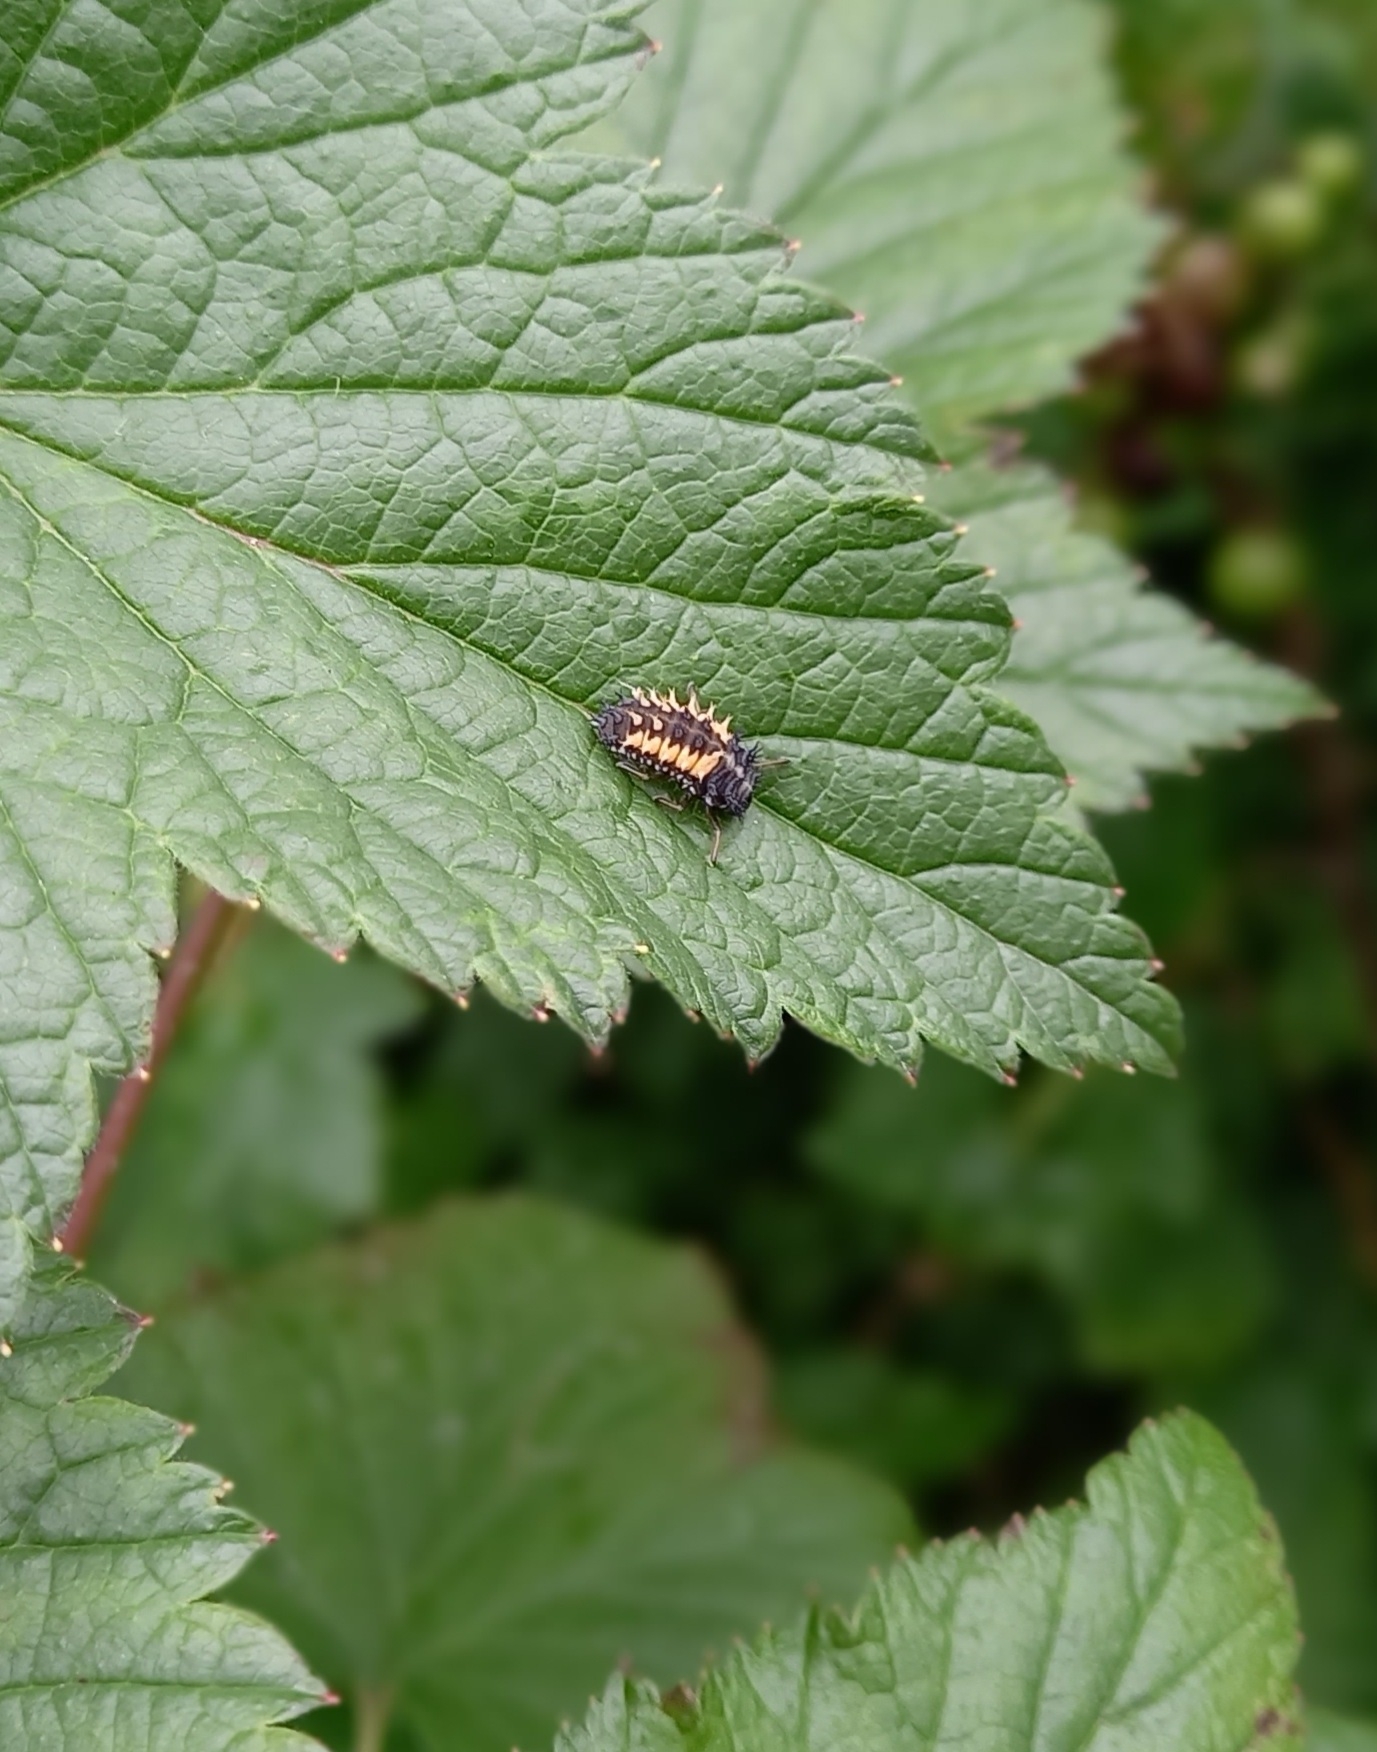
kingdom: Animalia
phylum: Arthropoda
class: Insecta
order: Coleoptera
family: Coccinellidae
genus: Harmonia
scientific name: Harmonia axyridis
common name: Harlequin ladybird
